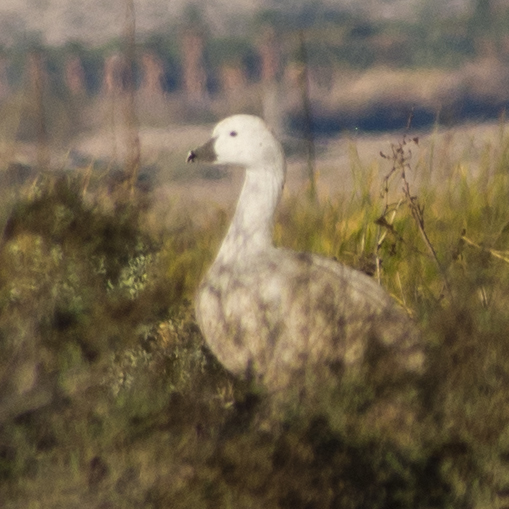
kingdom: Animalia
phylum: Chordata
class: Aves
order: Anseriformes
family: Anatidae
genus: Anser
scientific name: Anser rossii
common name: Ross's goose
